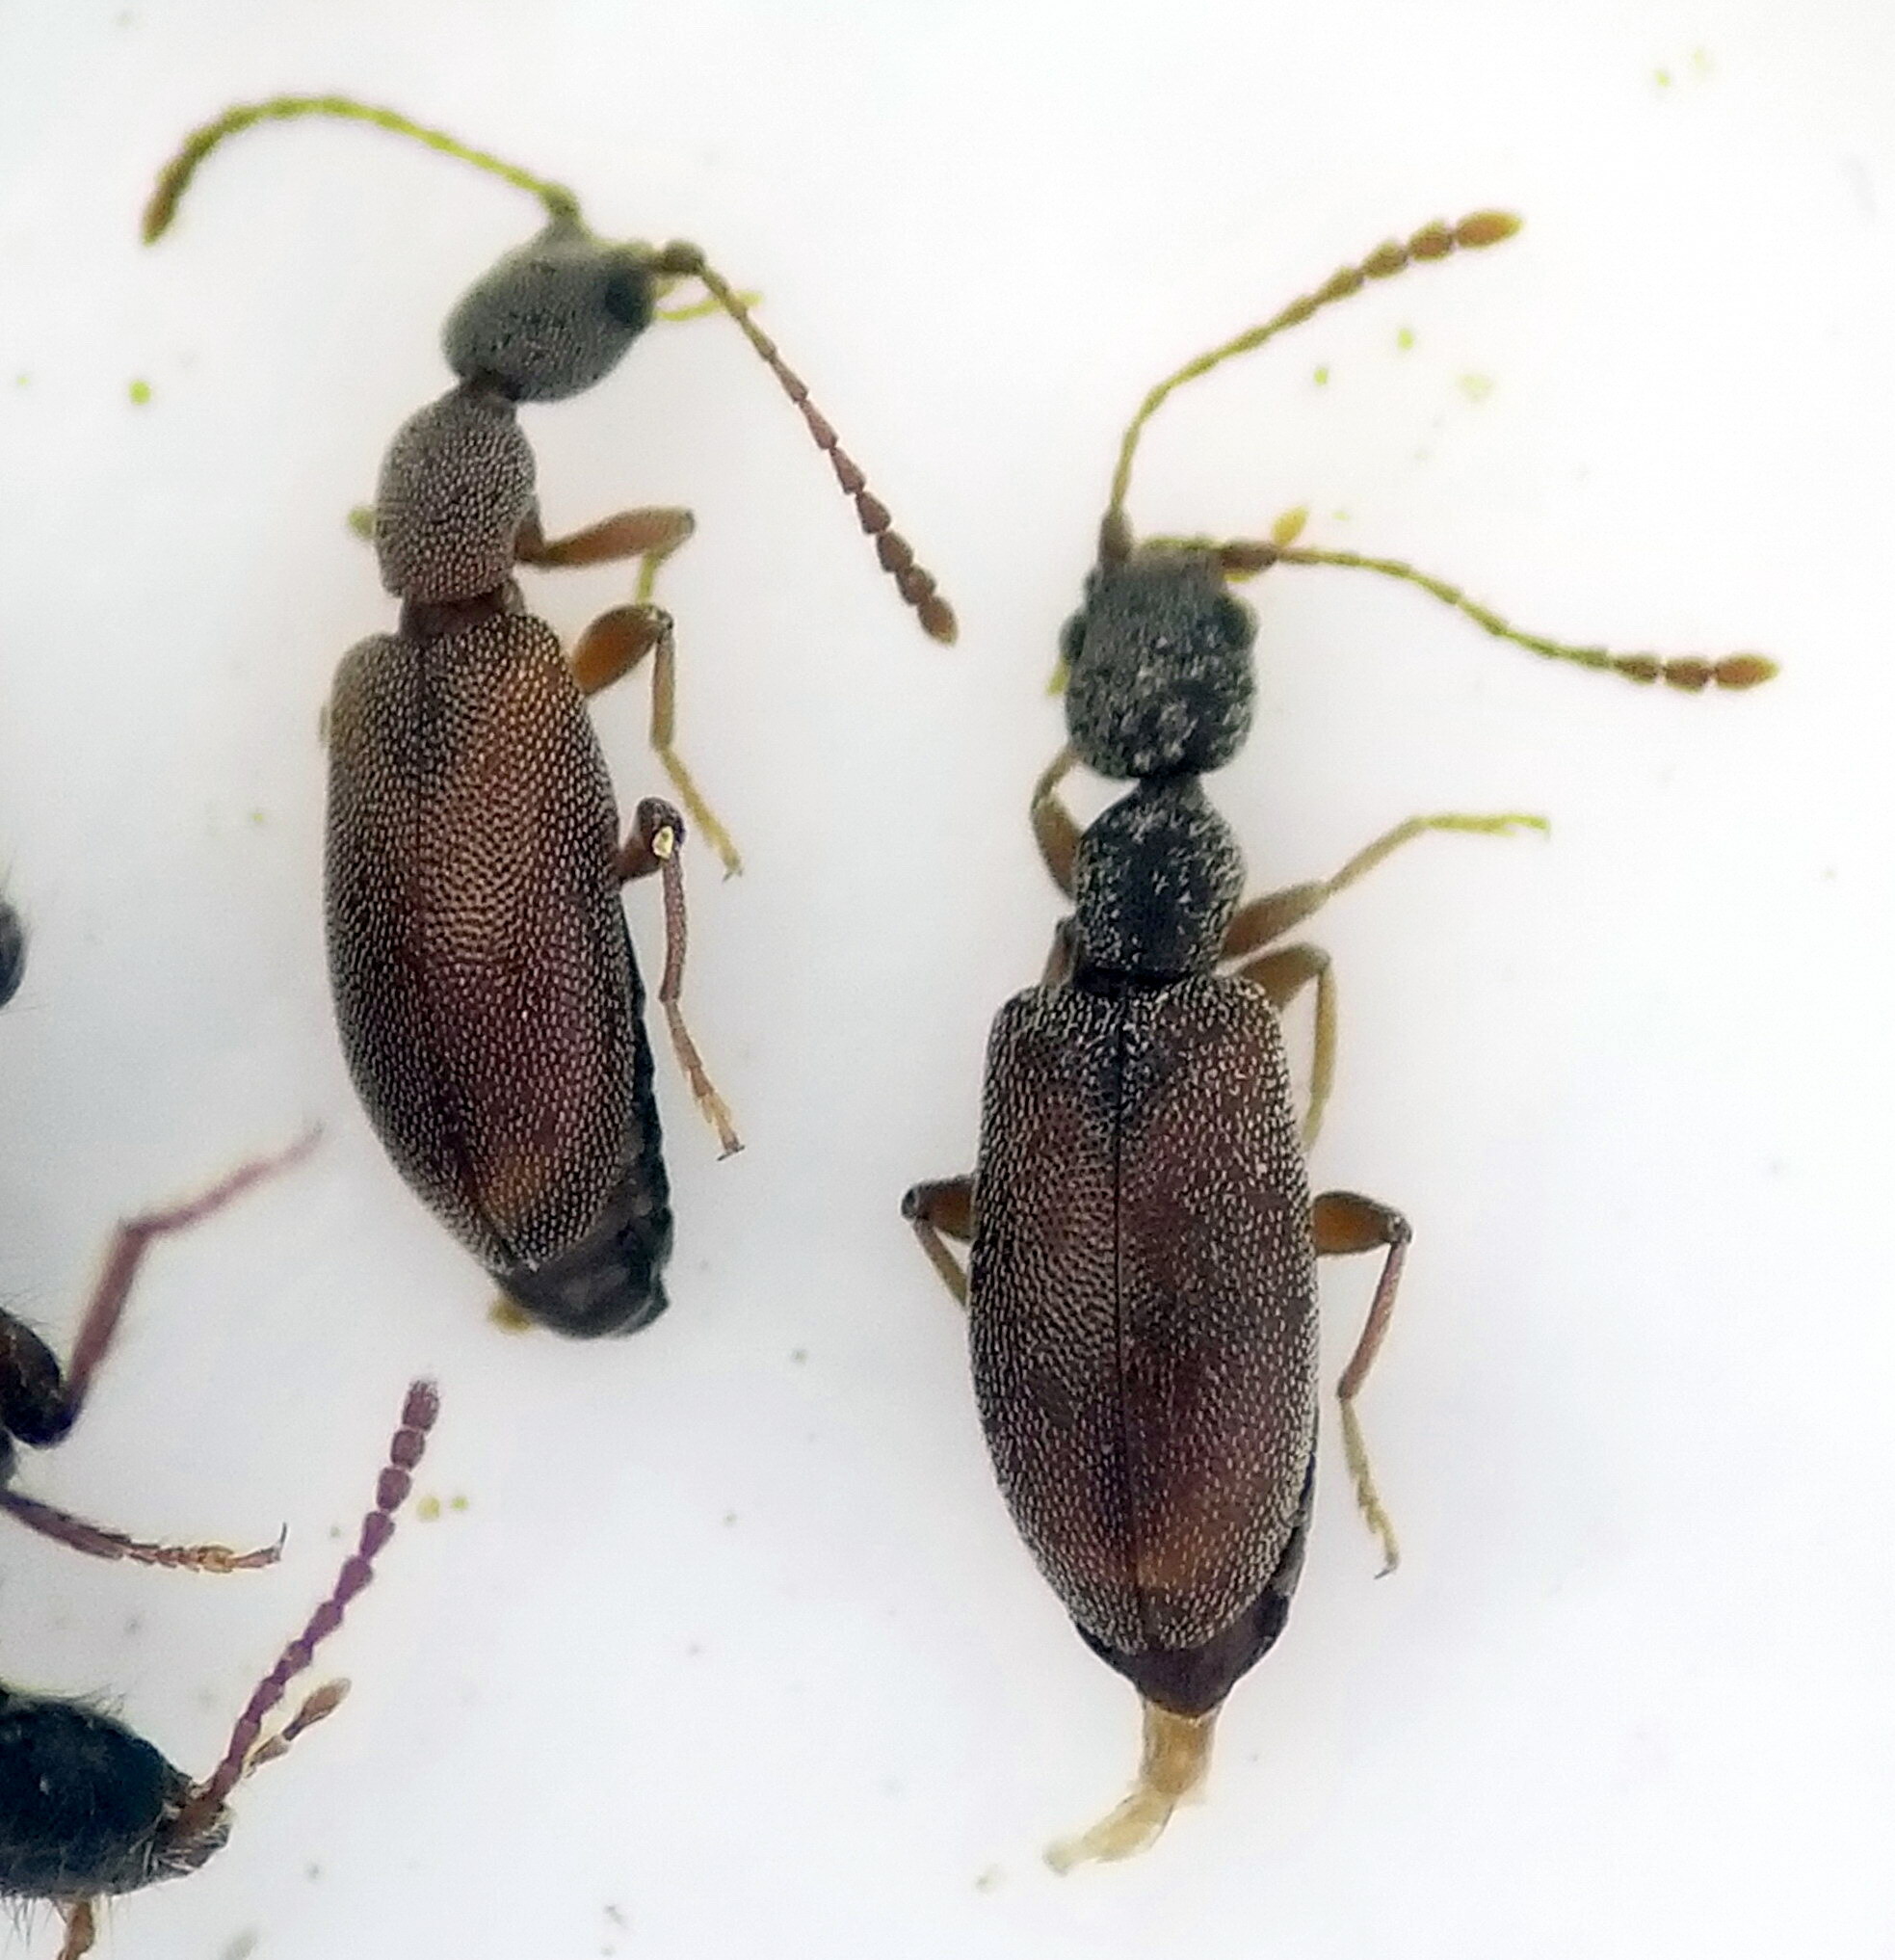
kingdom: Animalia
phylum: Arthropoda
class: Insecta
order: Coleoptera
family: Anthicidae
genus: Endomia
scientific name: Endomia tenuicollis
